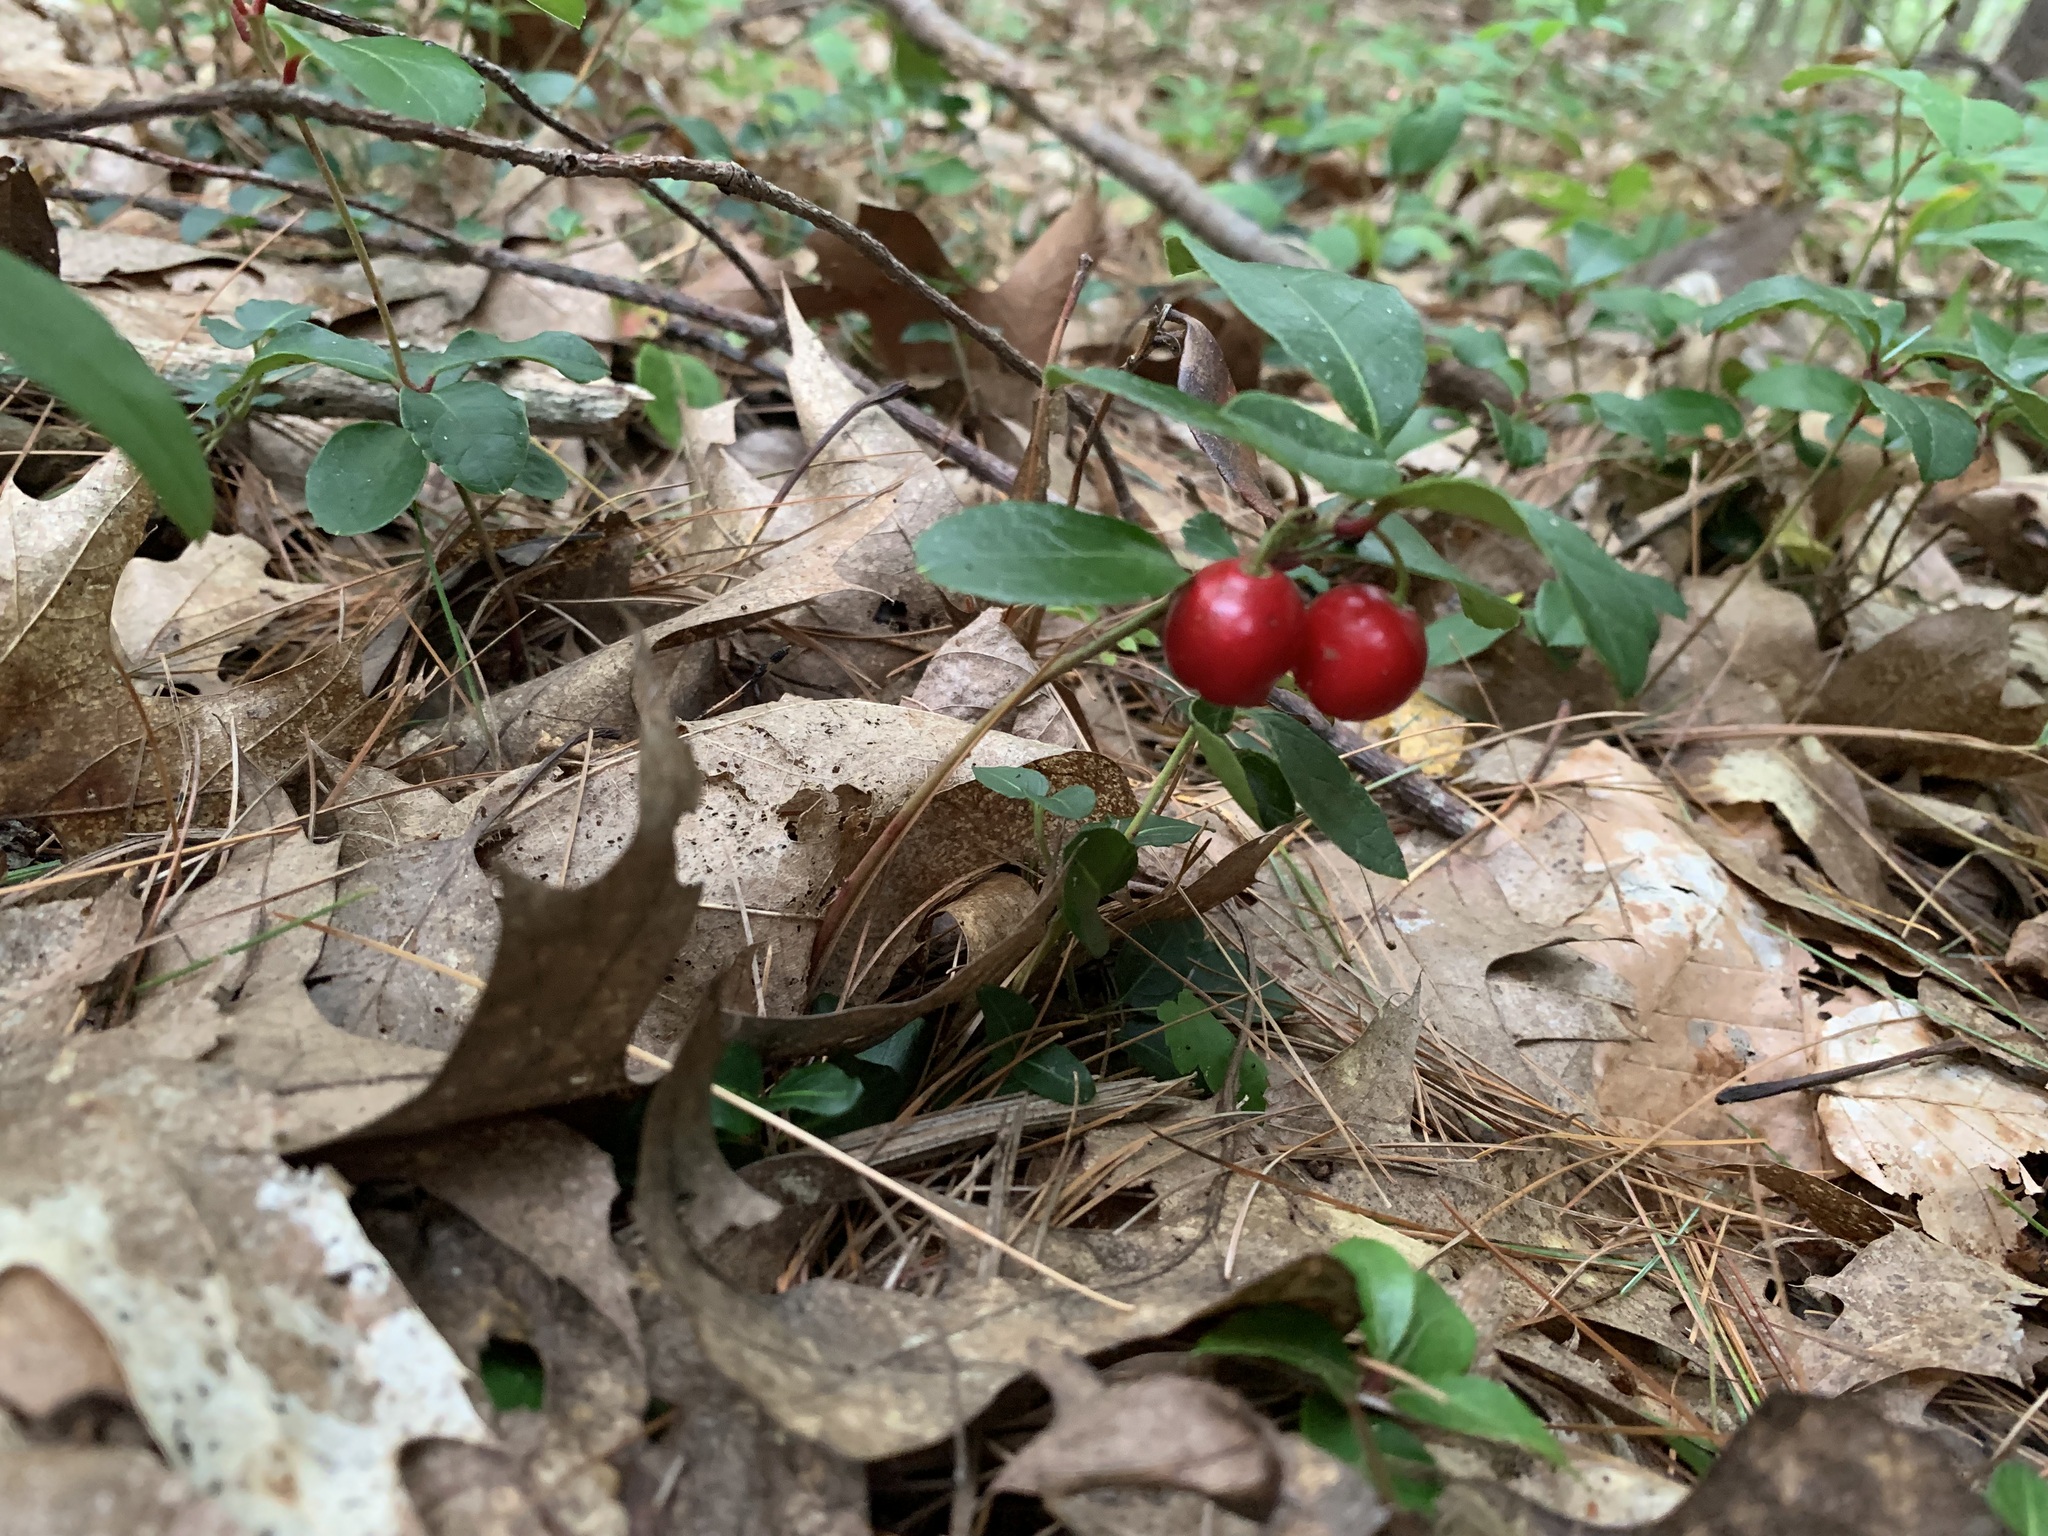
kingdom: Plantae
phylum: Tracheophyta
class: Magnoliopsida
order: Ericales
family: Ericaceae
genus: Gaultheria
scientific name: Gaultheria procumbens
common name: Checkerberry
